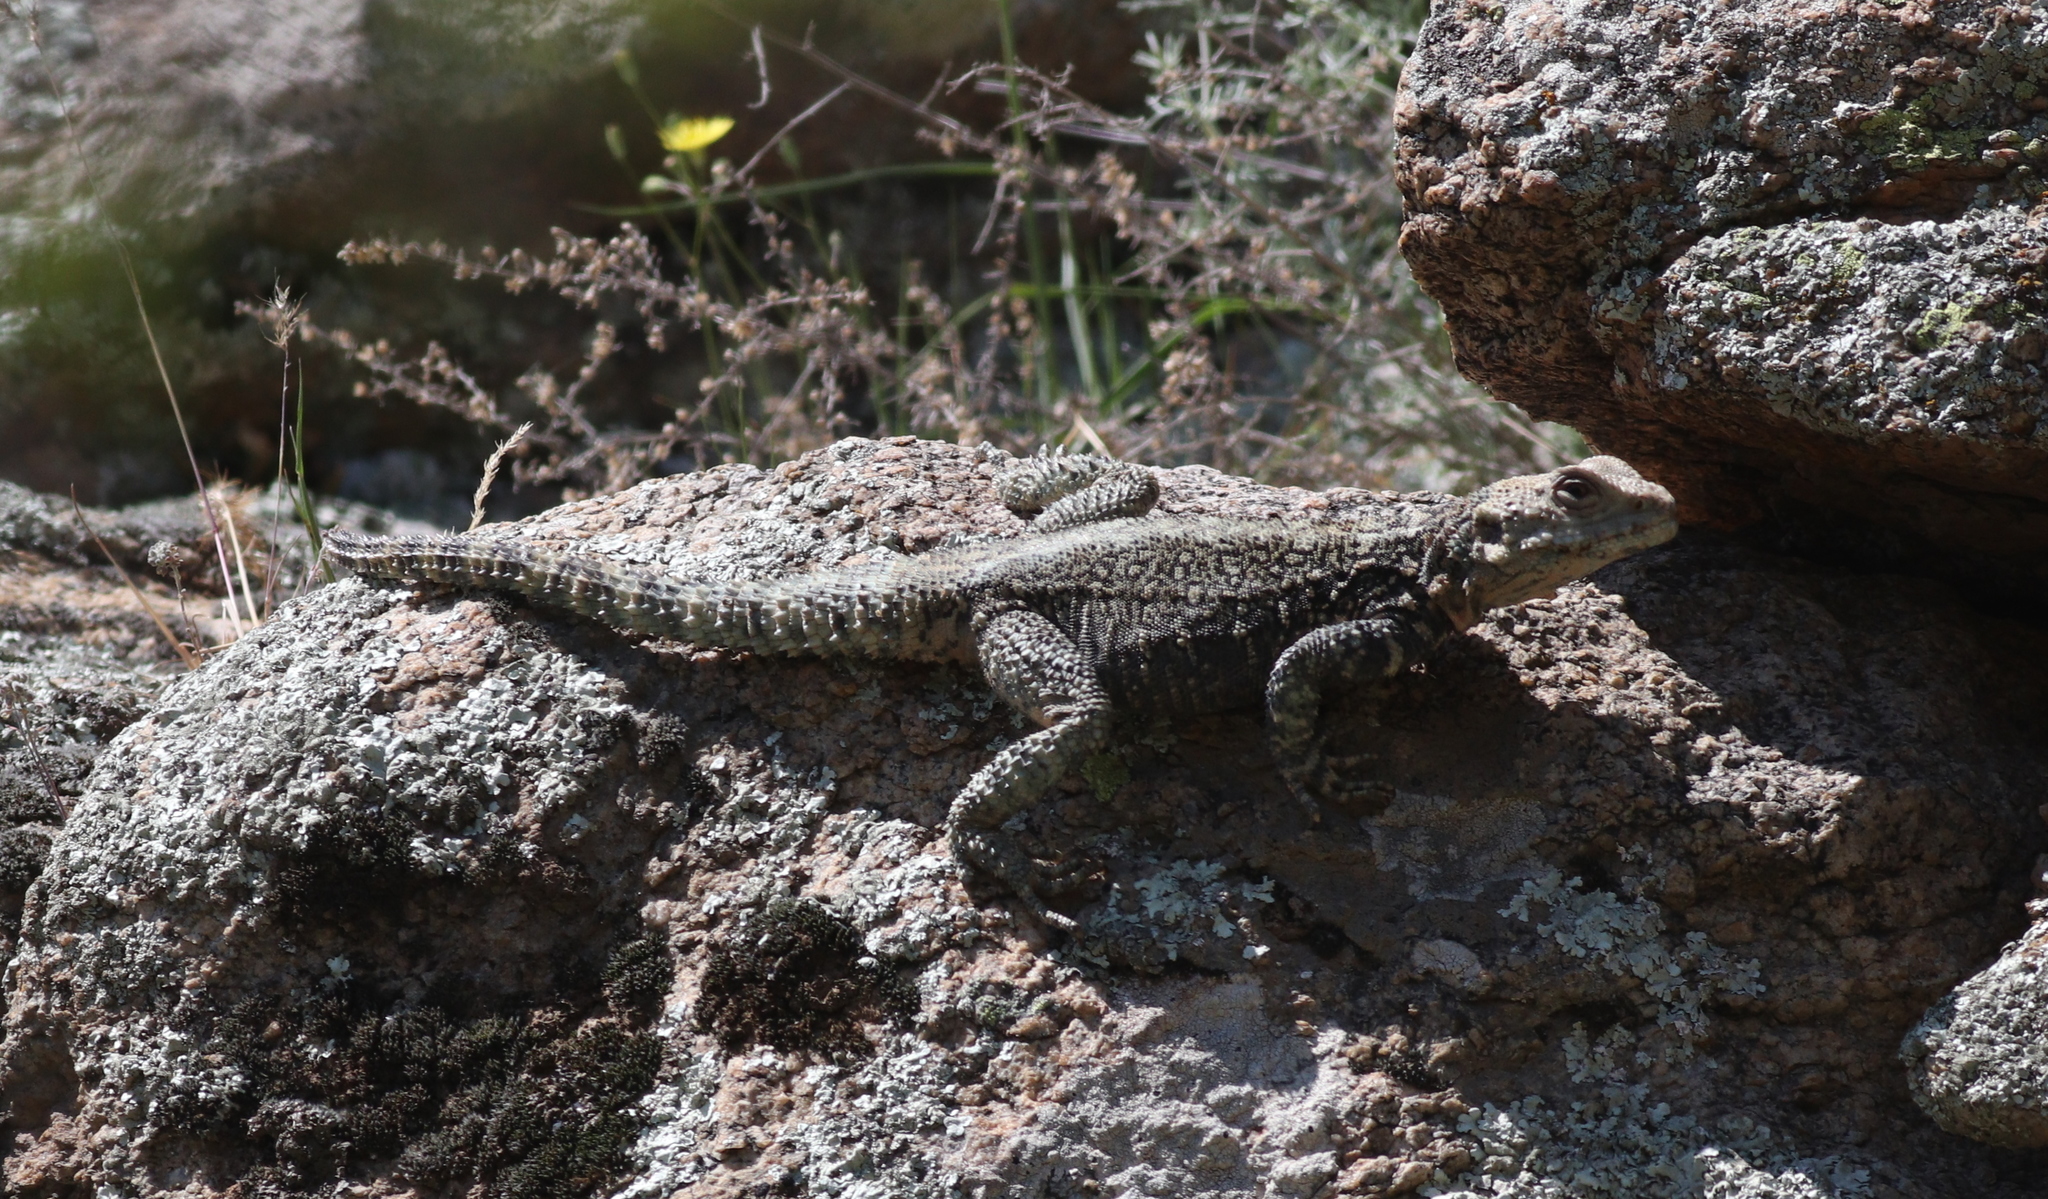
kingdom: Animalia
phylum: Chordata
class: Squamata
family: Agamidae
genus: Paralaudakia
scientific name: Paralaudakia caucasia
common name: Caucasian agama
